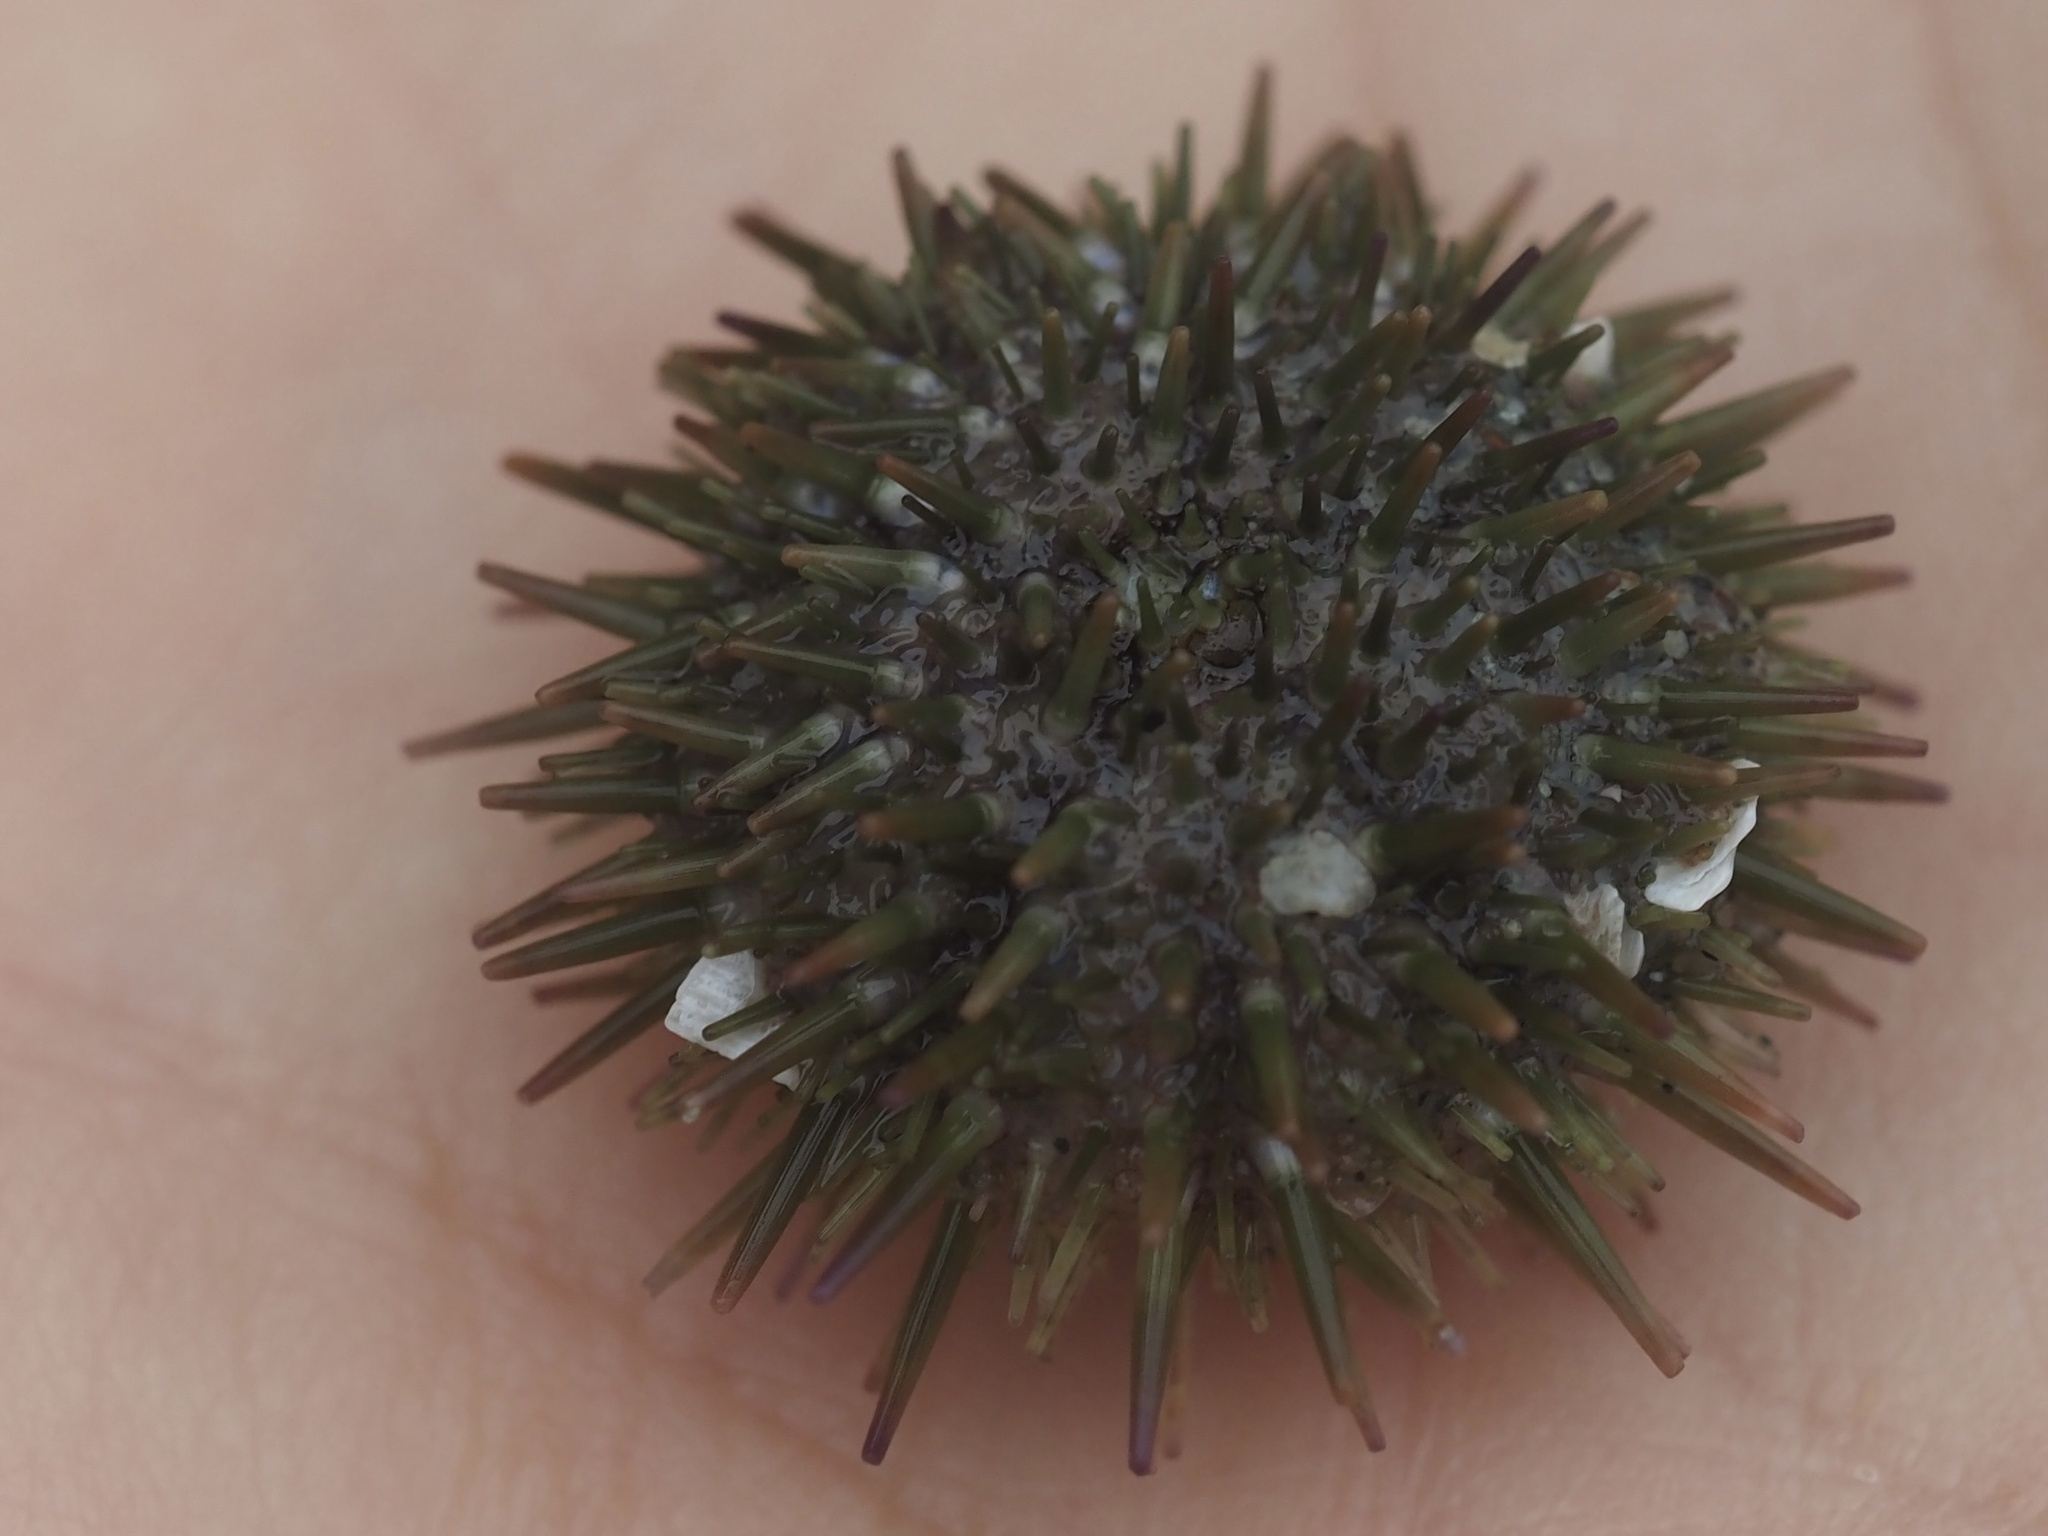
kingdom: Animalia
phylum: Echinodermata
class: Echinoidea
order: Camarodonta
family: Strongylocentrotidae
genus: Strongylocentrotus
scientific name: Strongylocentrotus purpuratus
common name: Purple sea urchin
